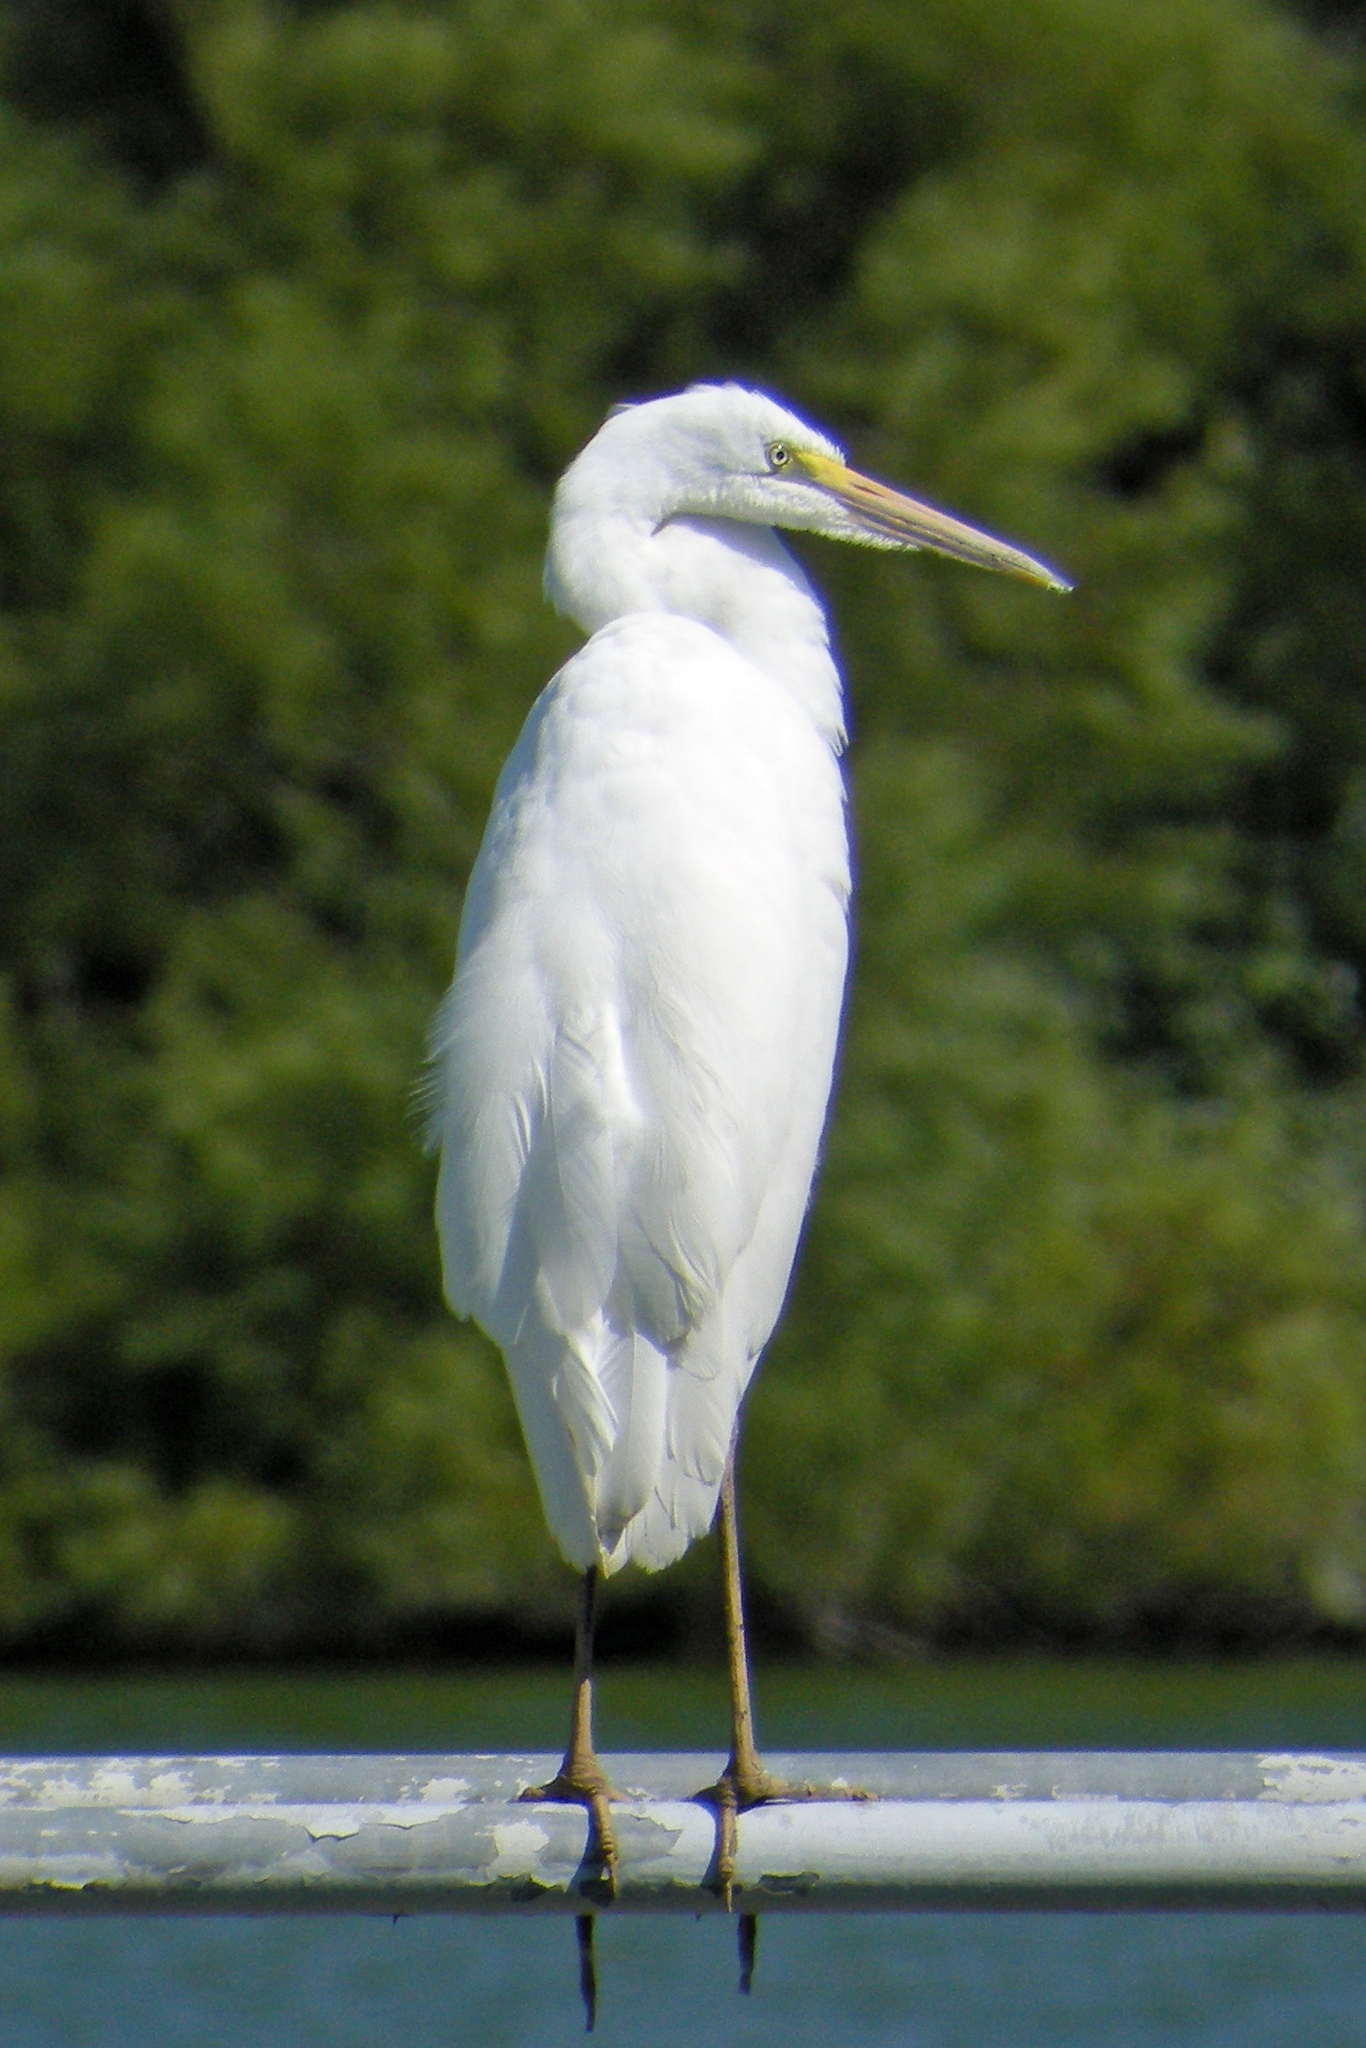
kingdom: Animalia
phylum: Chordata
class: Aves
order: Pelecaniformes
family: Ardeidae
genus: Ardea
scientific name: Ardea alba
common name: Great egret
